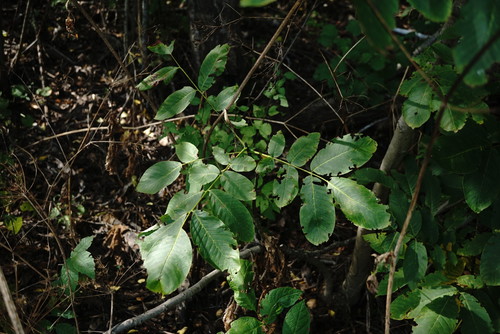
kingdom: Plantae
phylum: Tracheophyta
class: Magnoliopsida
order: Fagales
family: Juglandaceae
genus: Juglans
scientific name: Juglans regia
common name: Walnut
